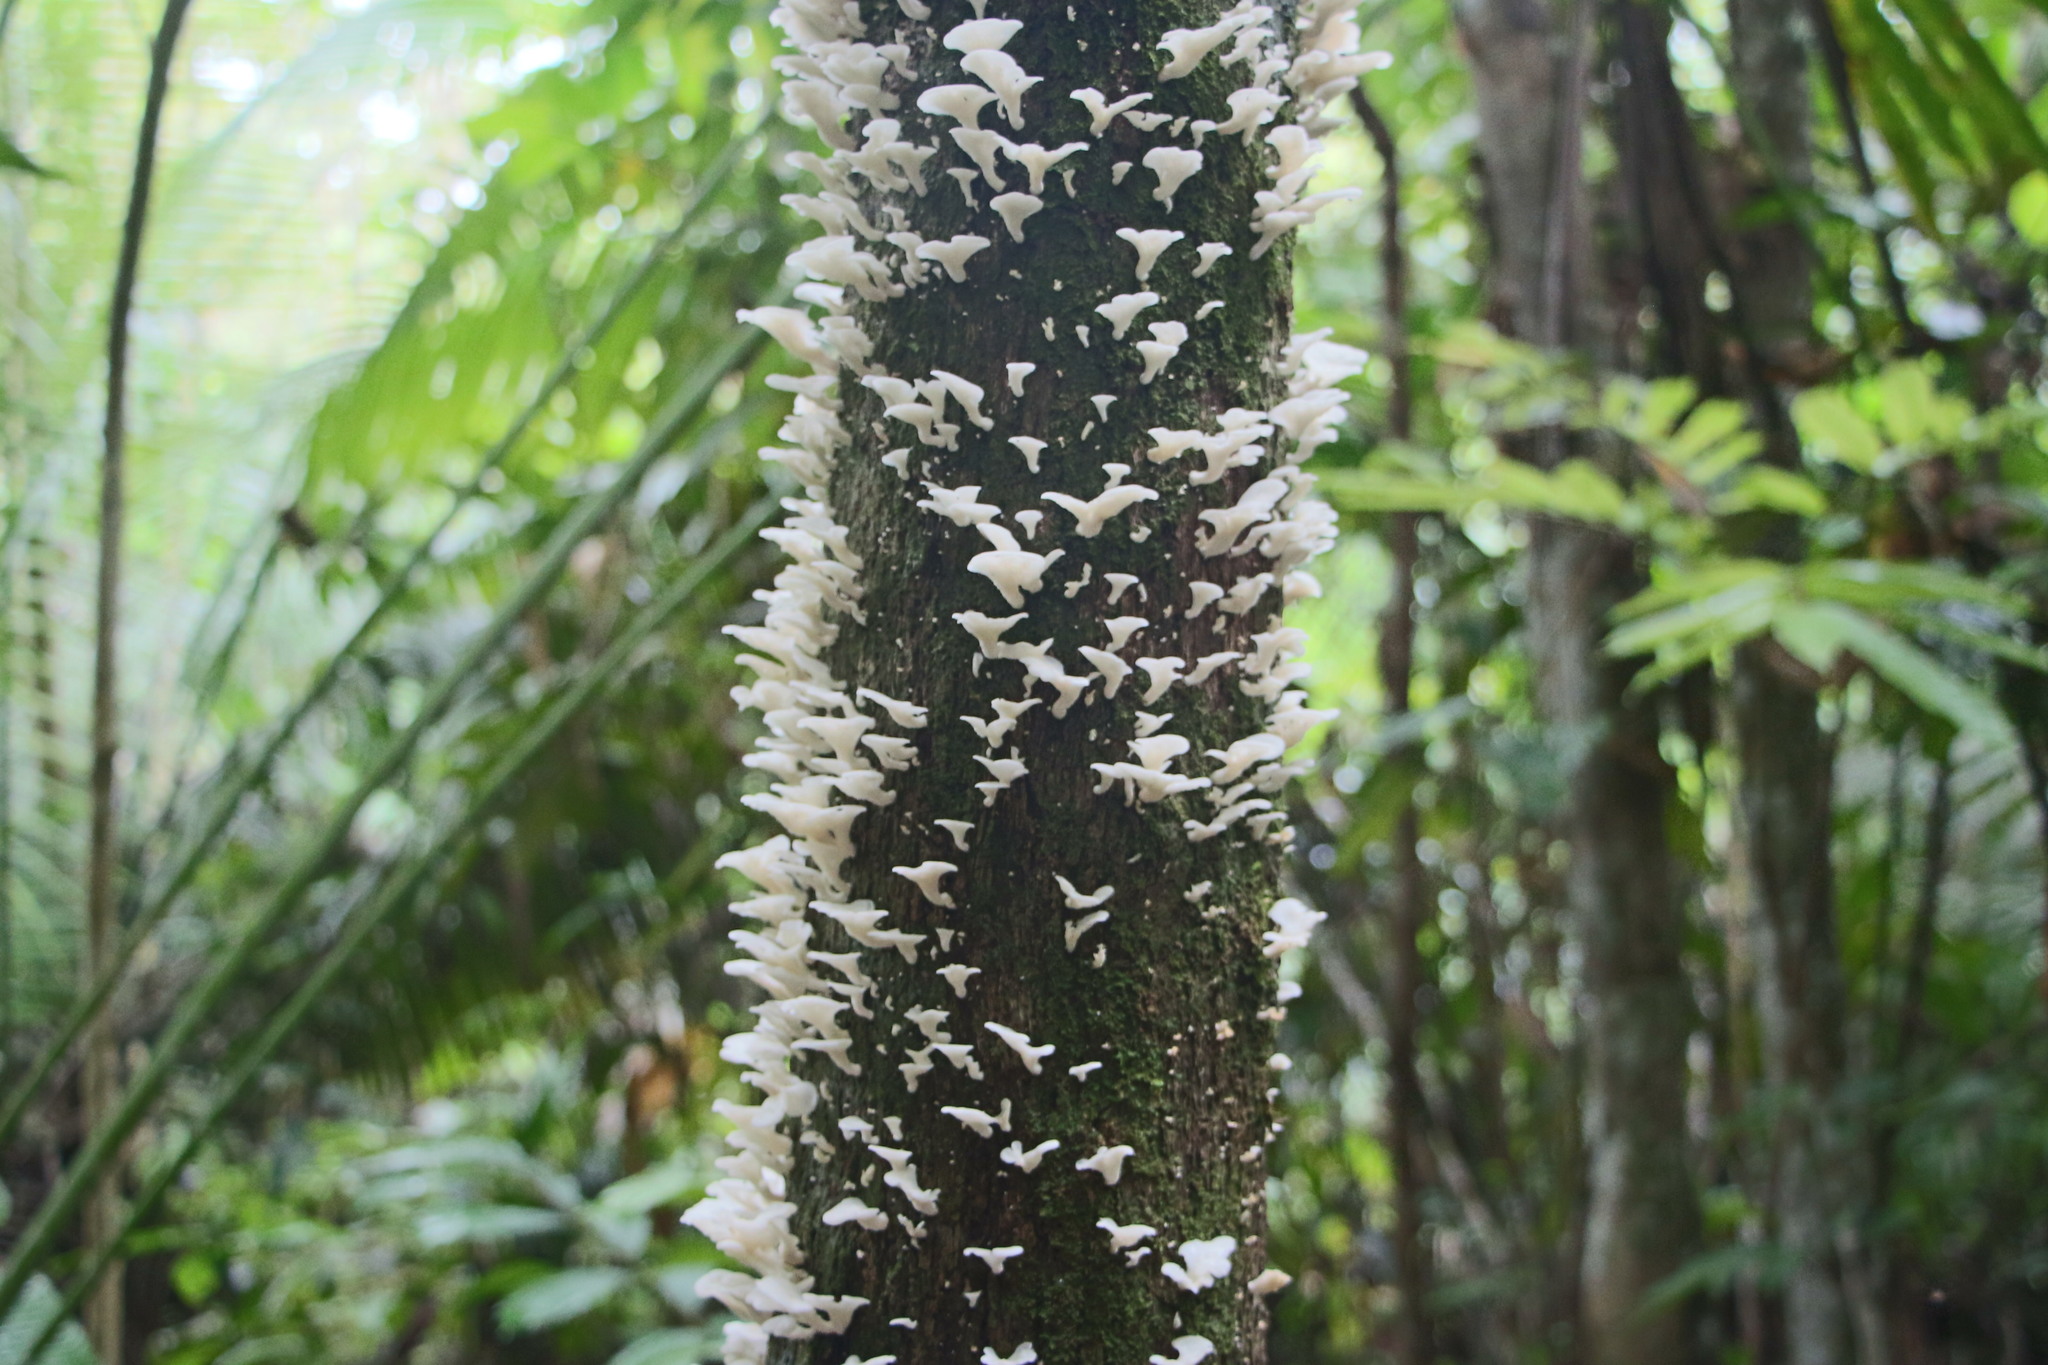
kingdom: Fungi
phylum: Basidiomycota
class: Agaricomycetes
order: Polyporales
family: Polyporaceae
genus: Favolus
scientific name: Favolus tenuiculus
